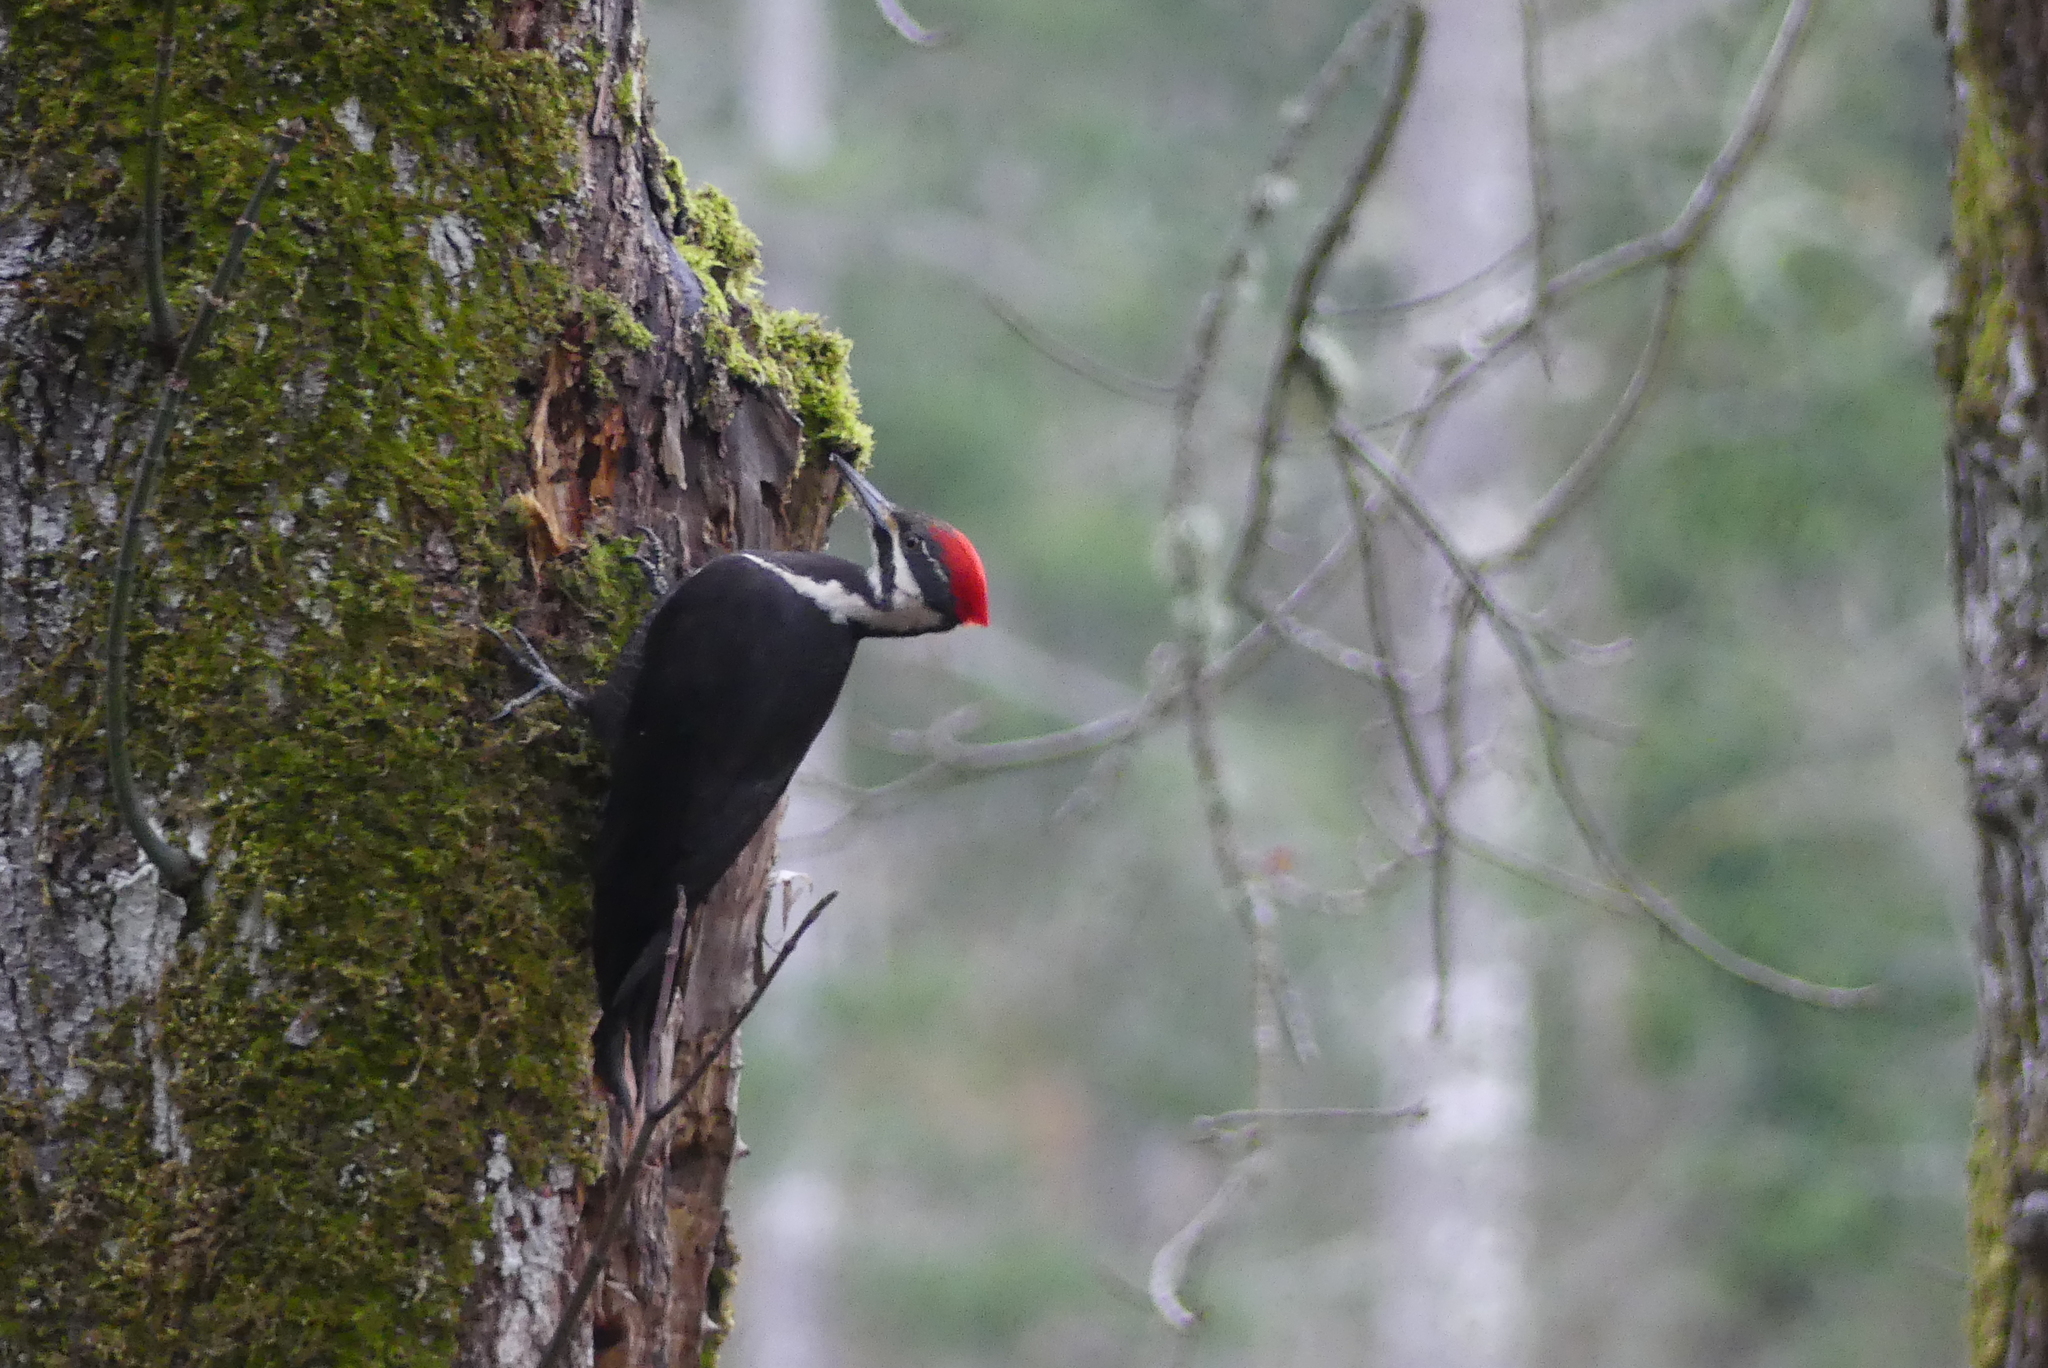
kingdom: Animalia
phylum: Chordata
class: Aves
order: Piciformes
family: Picidae
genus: Dryocopus
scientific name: Dryocopus pileatus
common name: Pileated woodpecker
